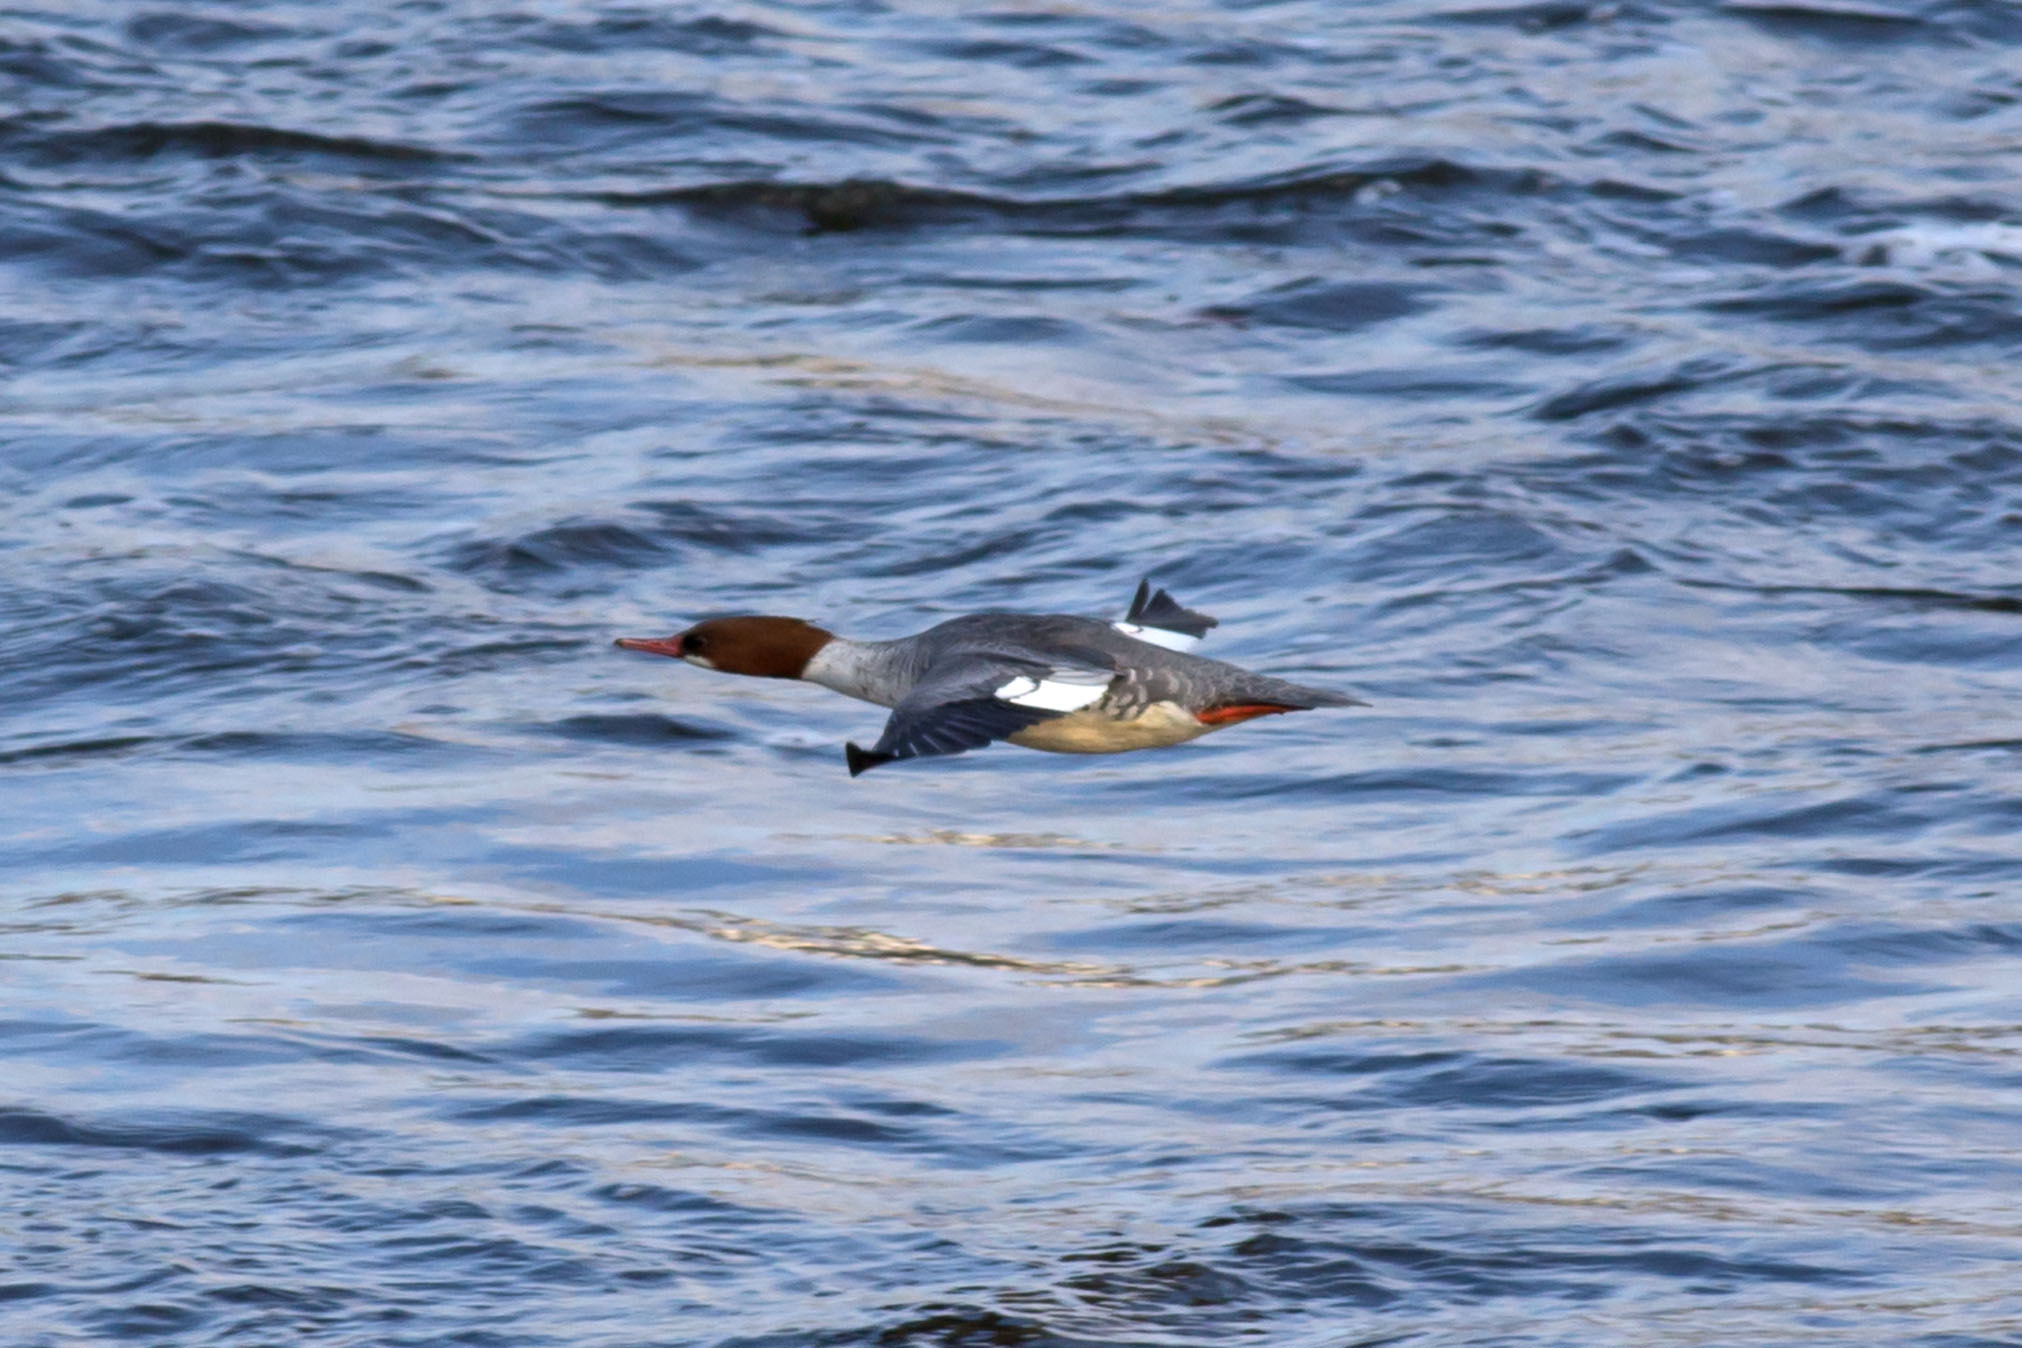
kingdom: Animalia
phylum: Chordata
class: Aves
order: Anseriformes
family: Anatidae
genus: Mergus
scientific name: Mergus merganser
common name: Common merganser
